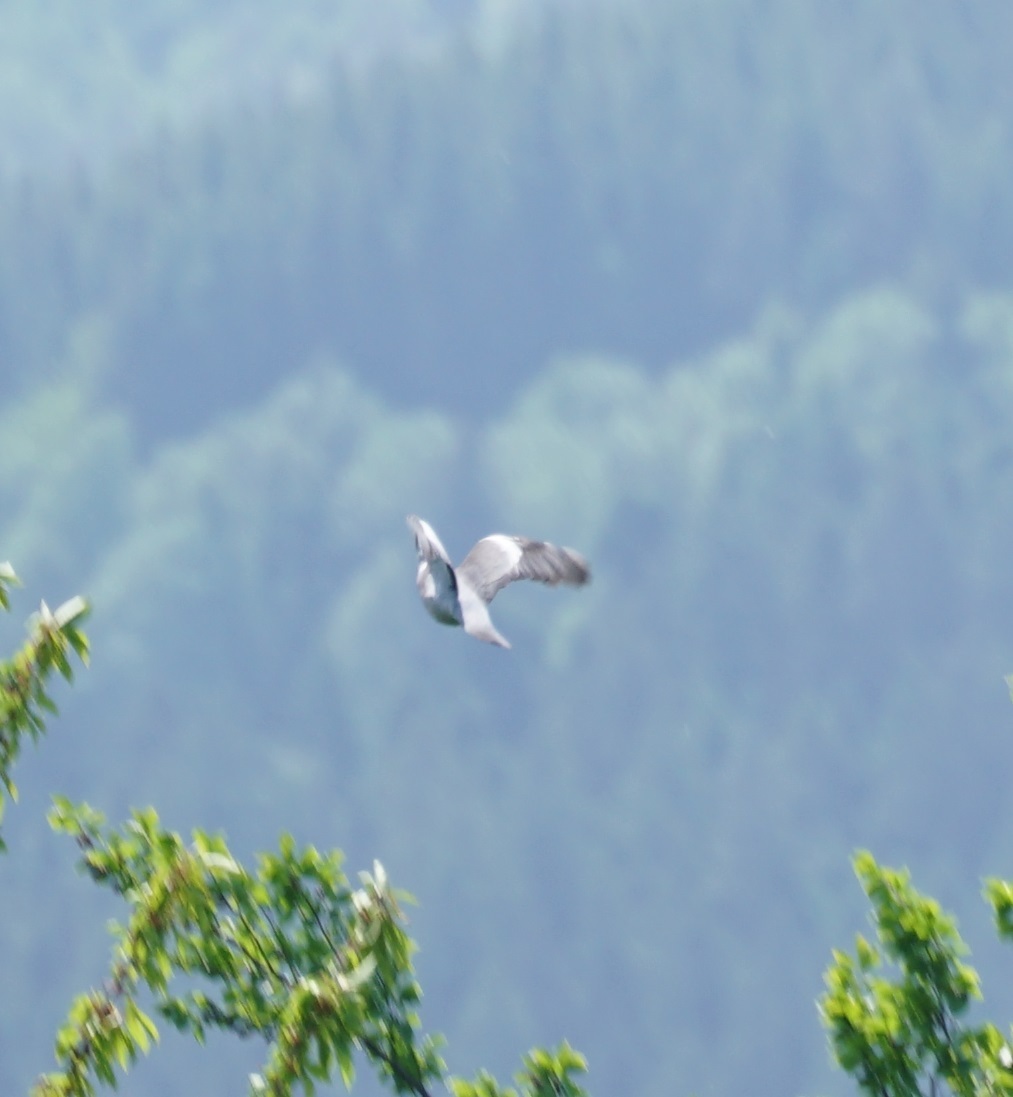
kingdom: Animalia
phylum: Chordata
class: Aves
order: Columbiformes
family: Columbidae
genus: Columba
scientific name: Columba palumbus
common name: Common wood pigeon
